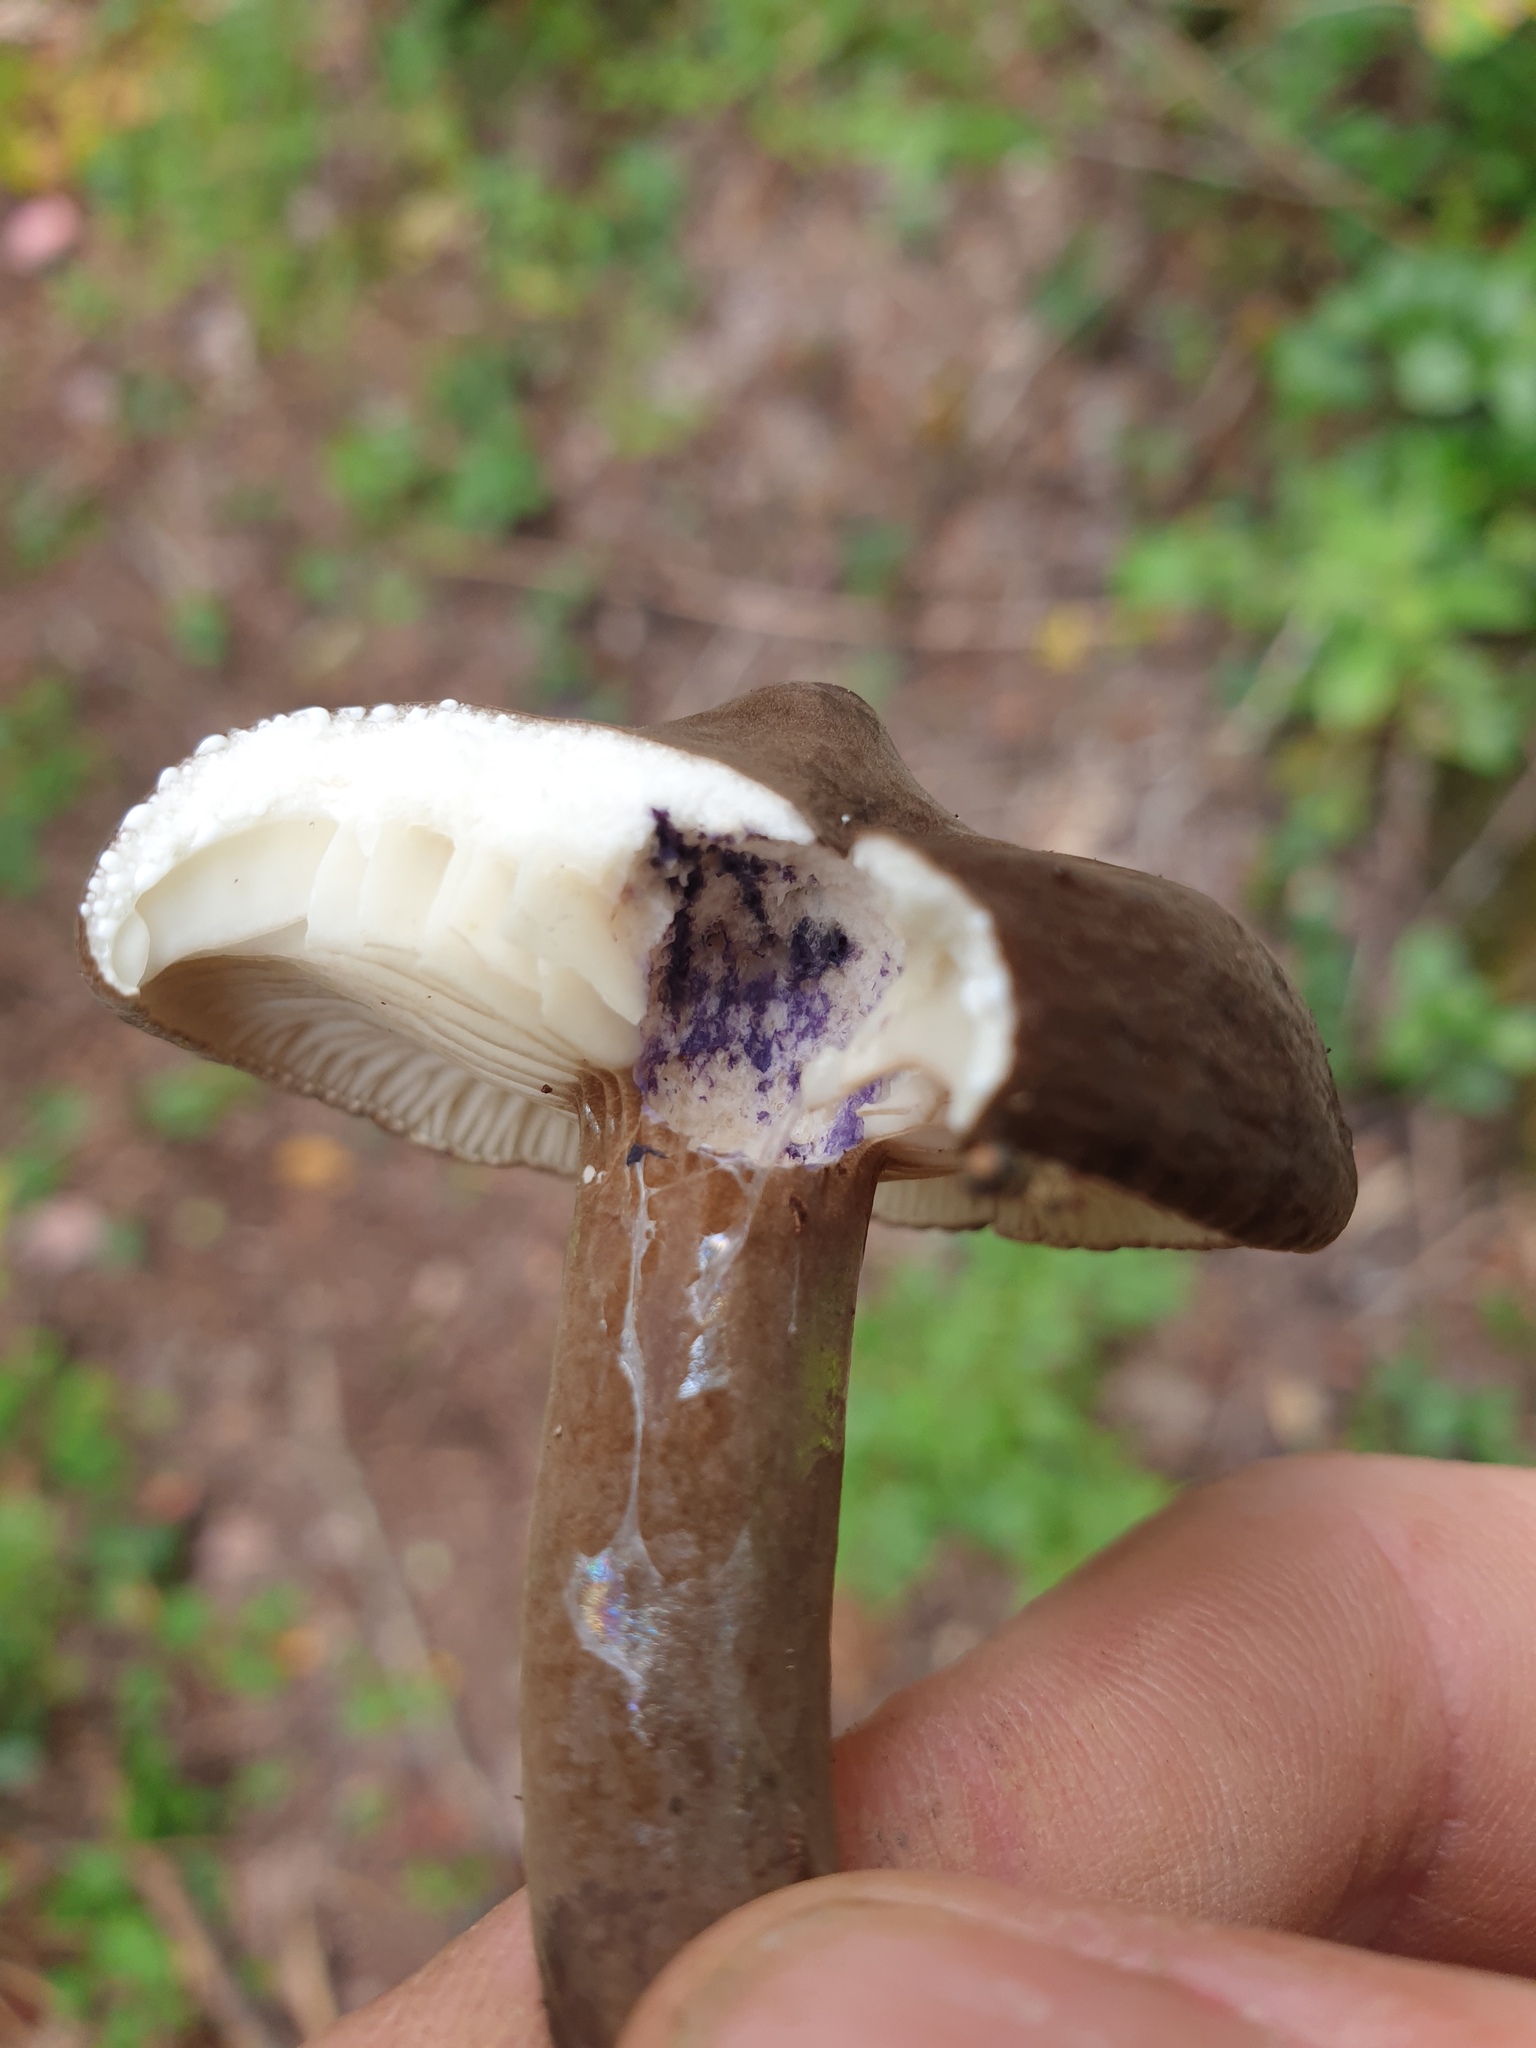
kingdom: Fungi
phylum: Basidiomycota
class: Agaricomycetes
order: Russulales
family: Russulaceae
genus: Lactarius
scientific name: Lactarius nigroviolascens
